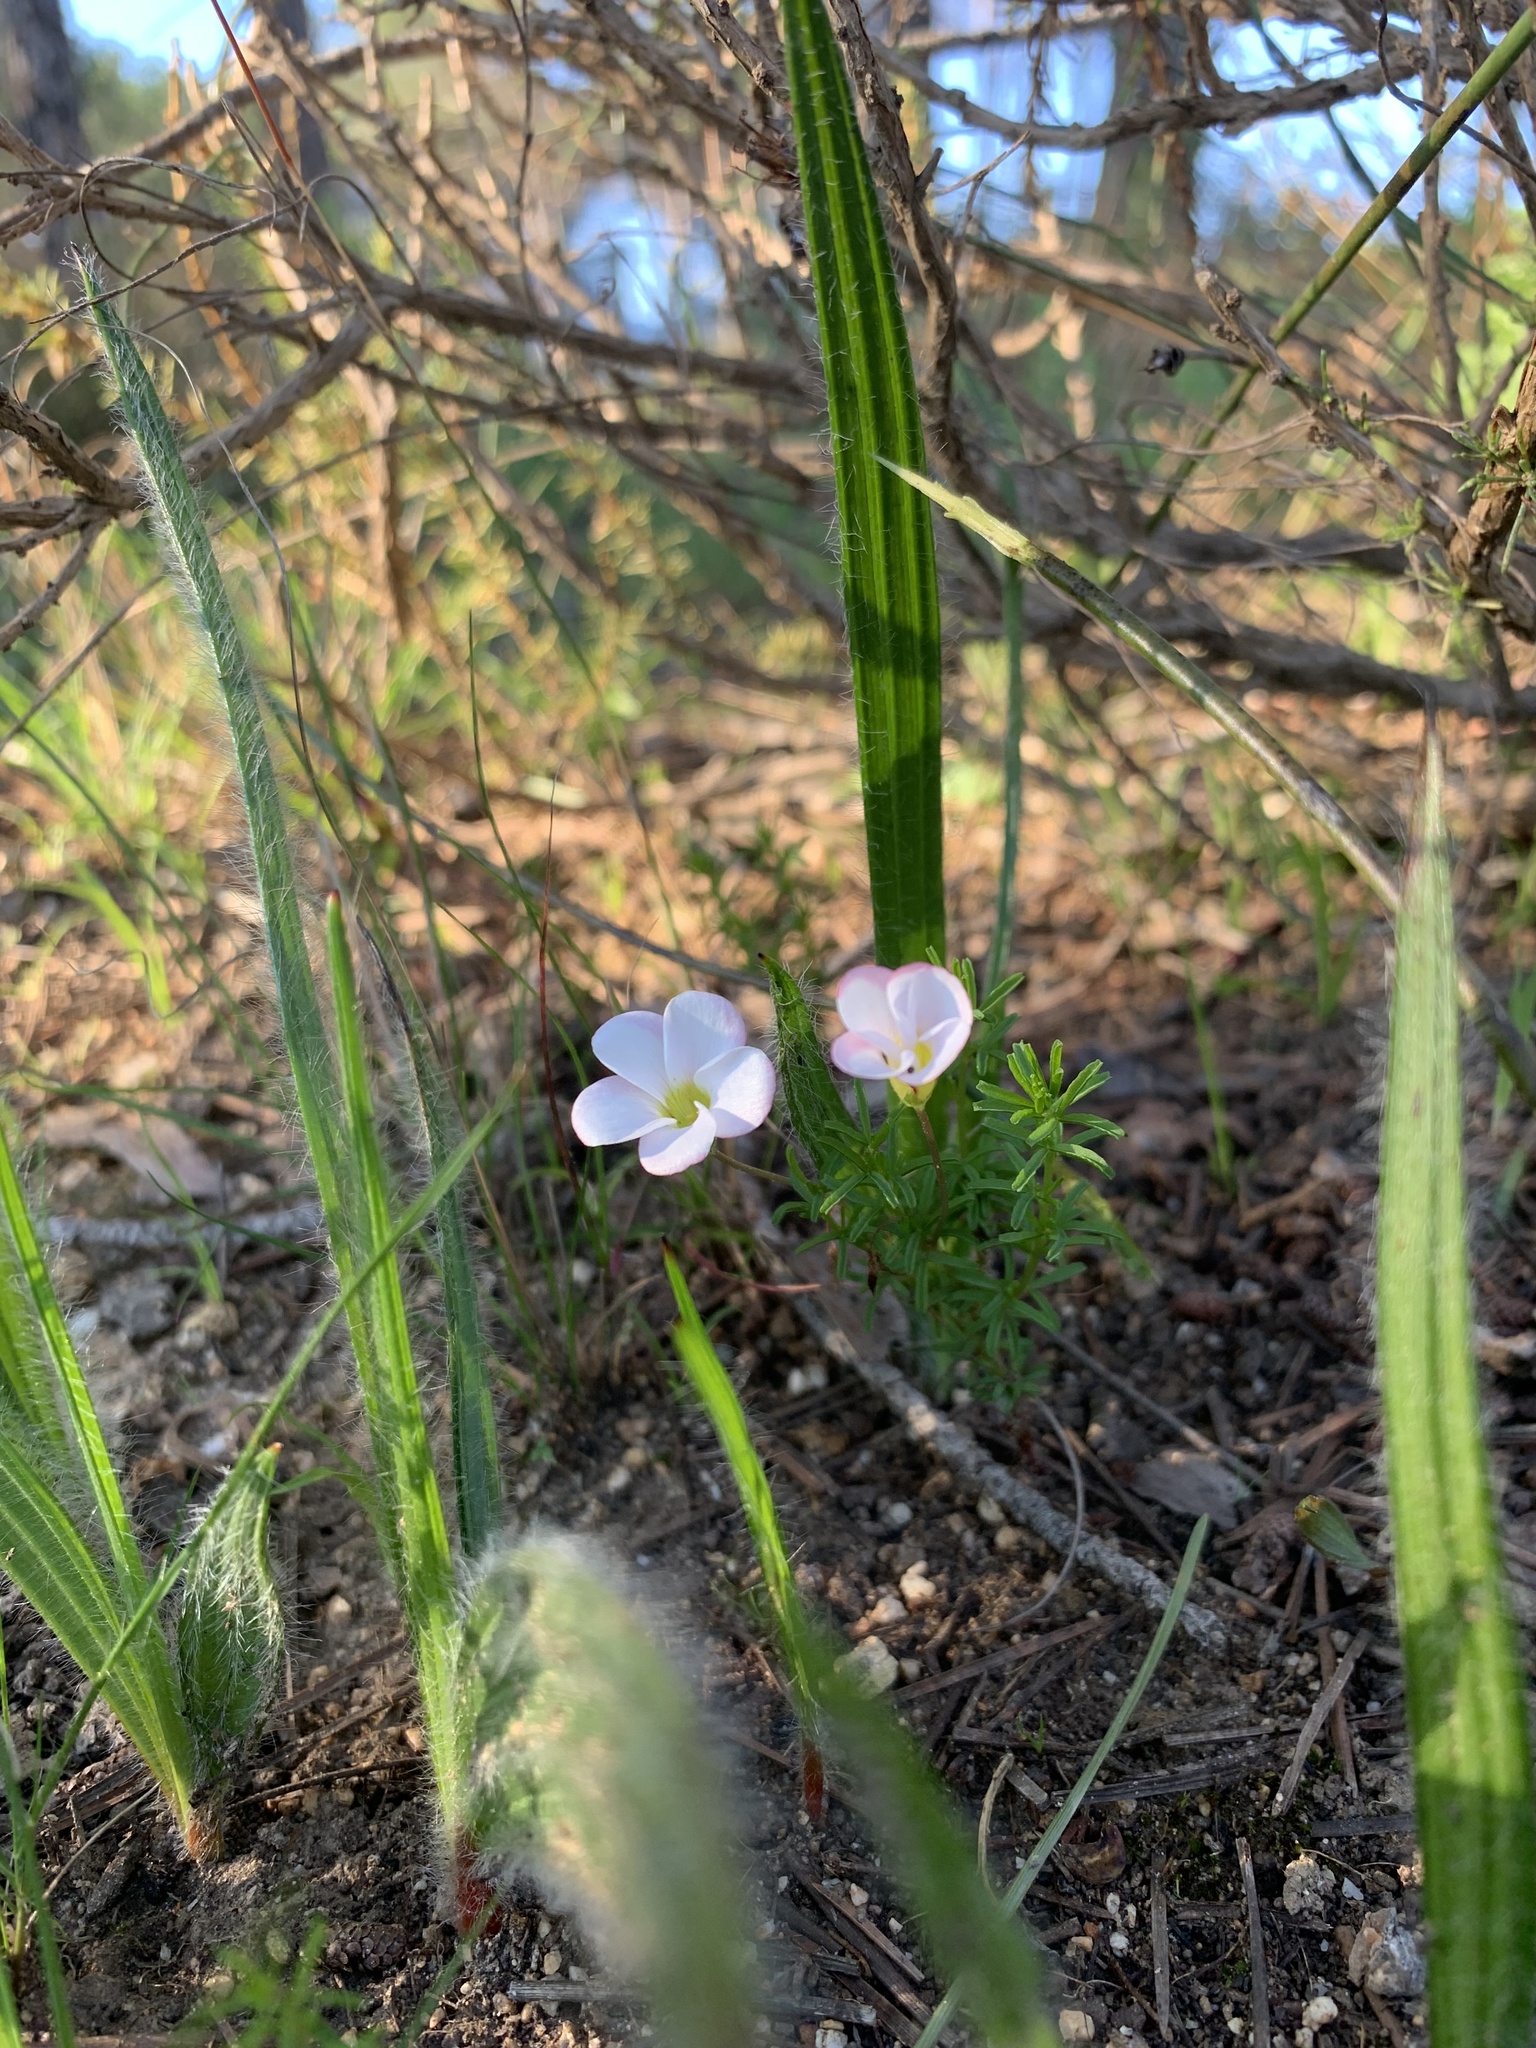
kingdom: Plantae
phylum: Tracheophyta
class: Magnoliopsida
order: Oxalidales
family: Oxalidaceae
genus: Oxalis
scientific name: Oxalis tenuifolia
